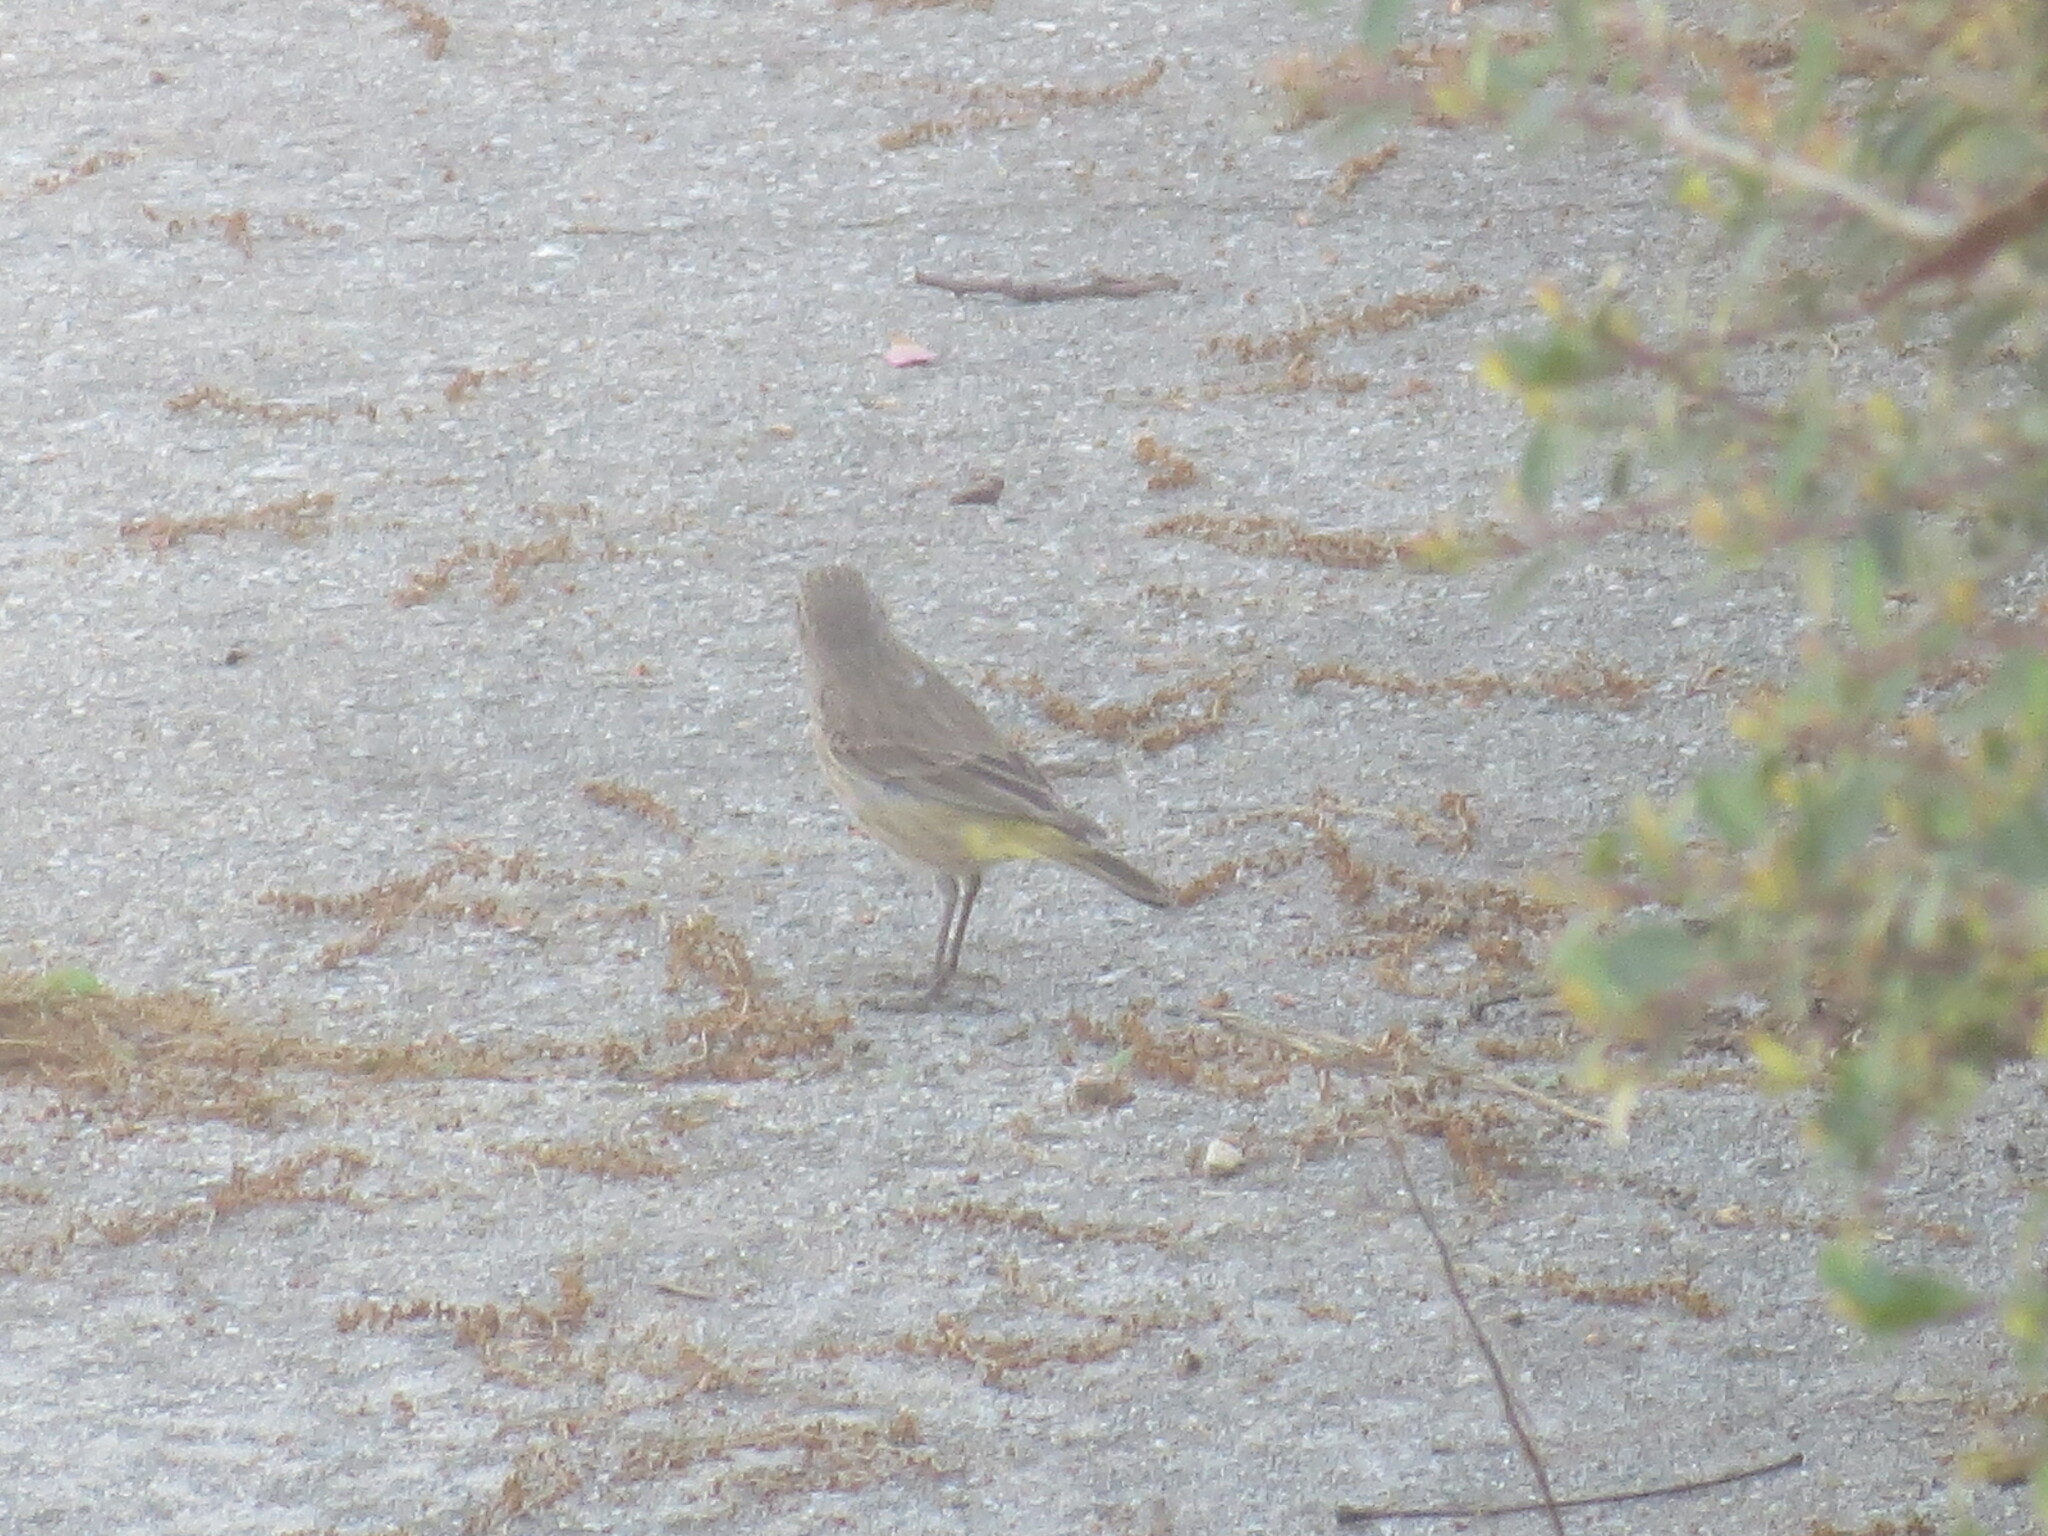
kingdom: Animalia
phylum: Chordata
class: Aves
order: Passeriformes
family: Parulidae
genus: Setophaga
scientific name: Setophaga palmarum
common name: Palm warbler
